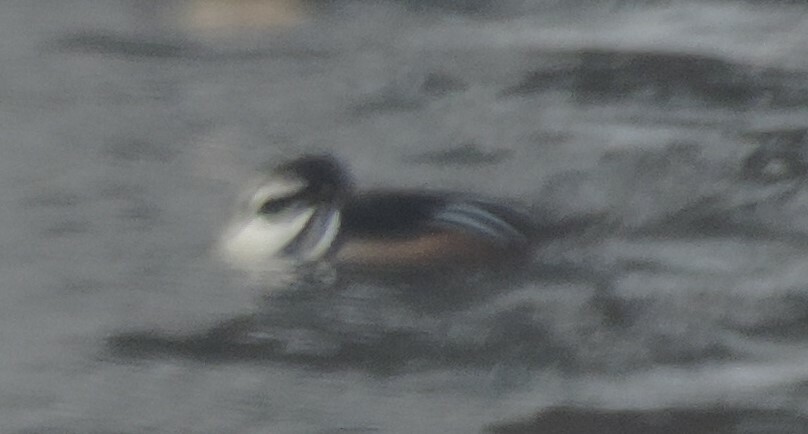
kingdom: Animalia
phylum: Chordata
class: Aves
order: Anseriformes
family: Anatidae
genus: Lophodytes
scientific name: Lophodytes cucullatus
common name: Hooded merganser
